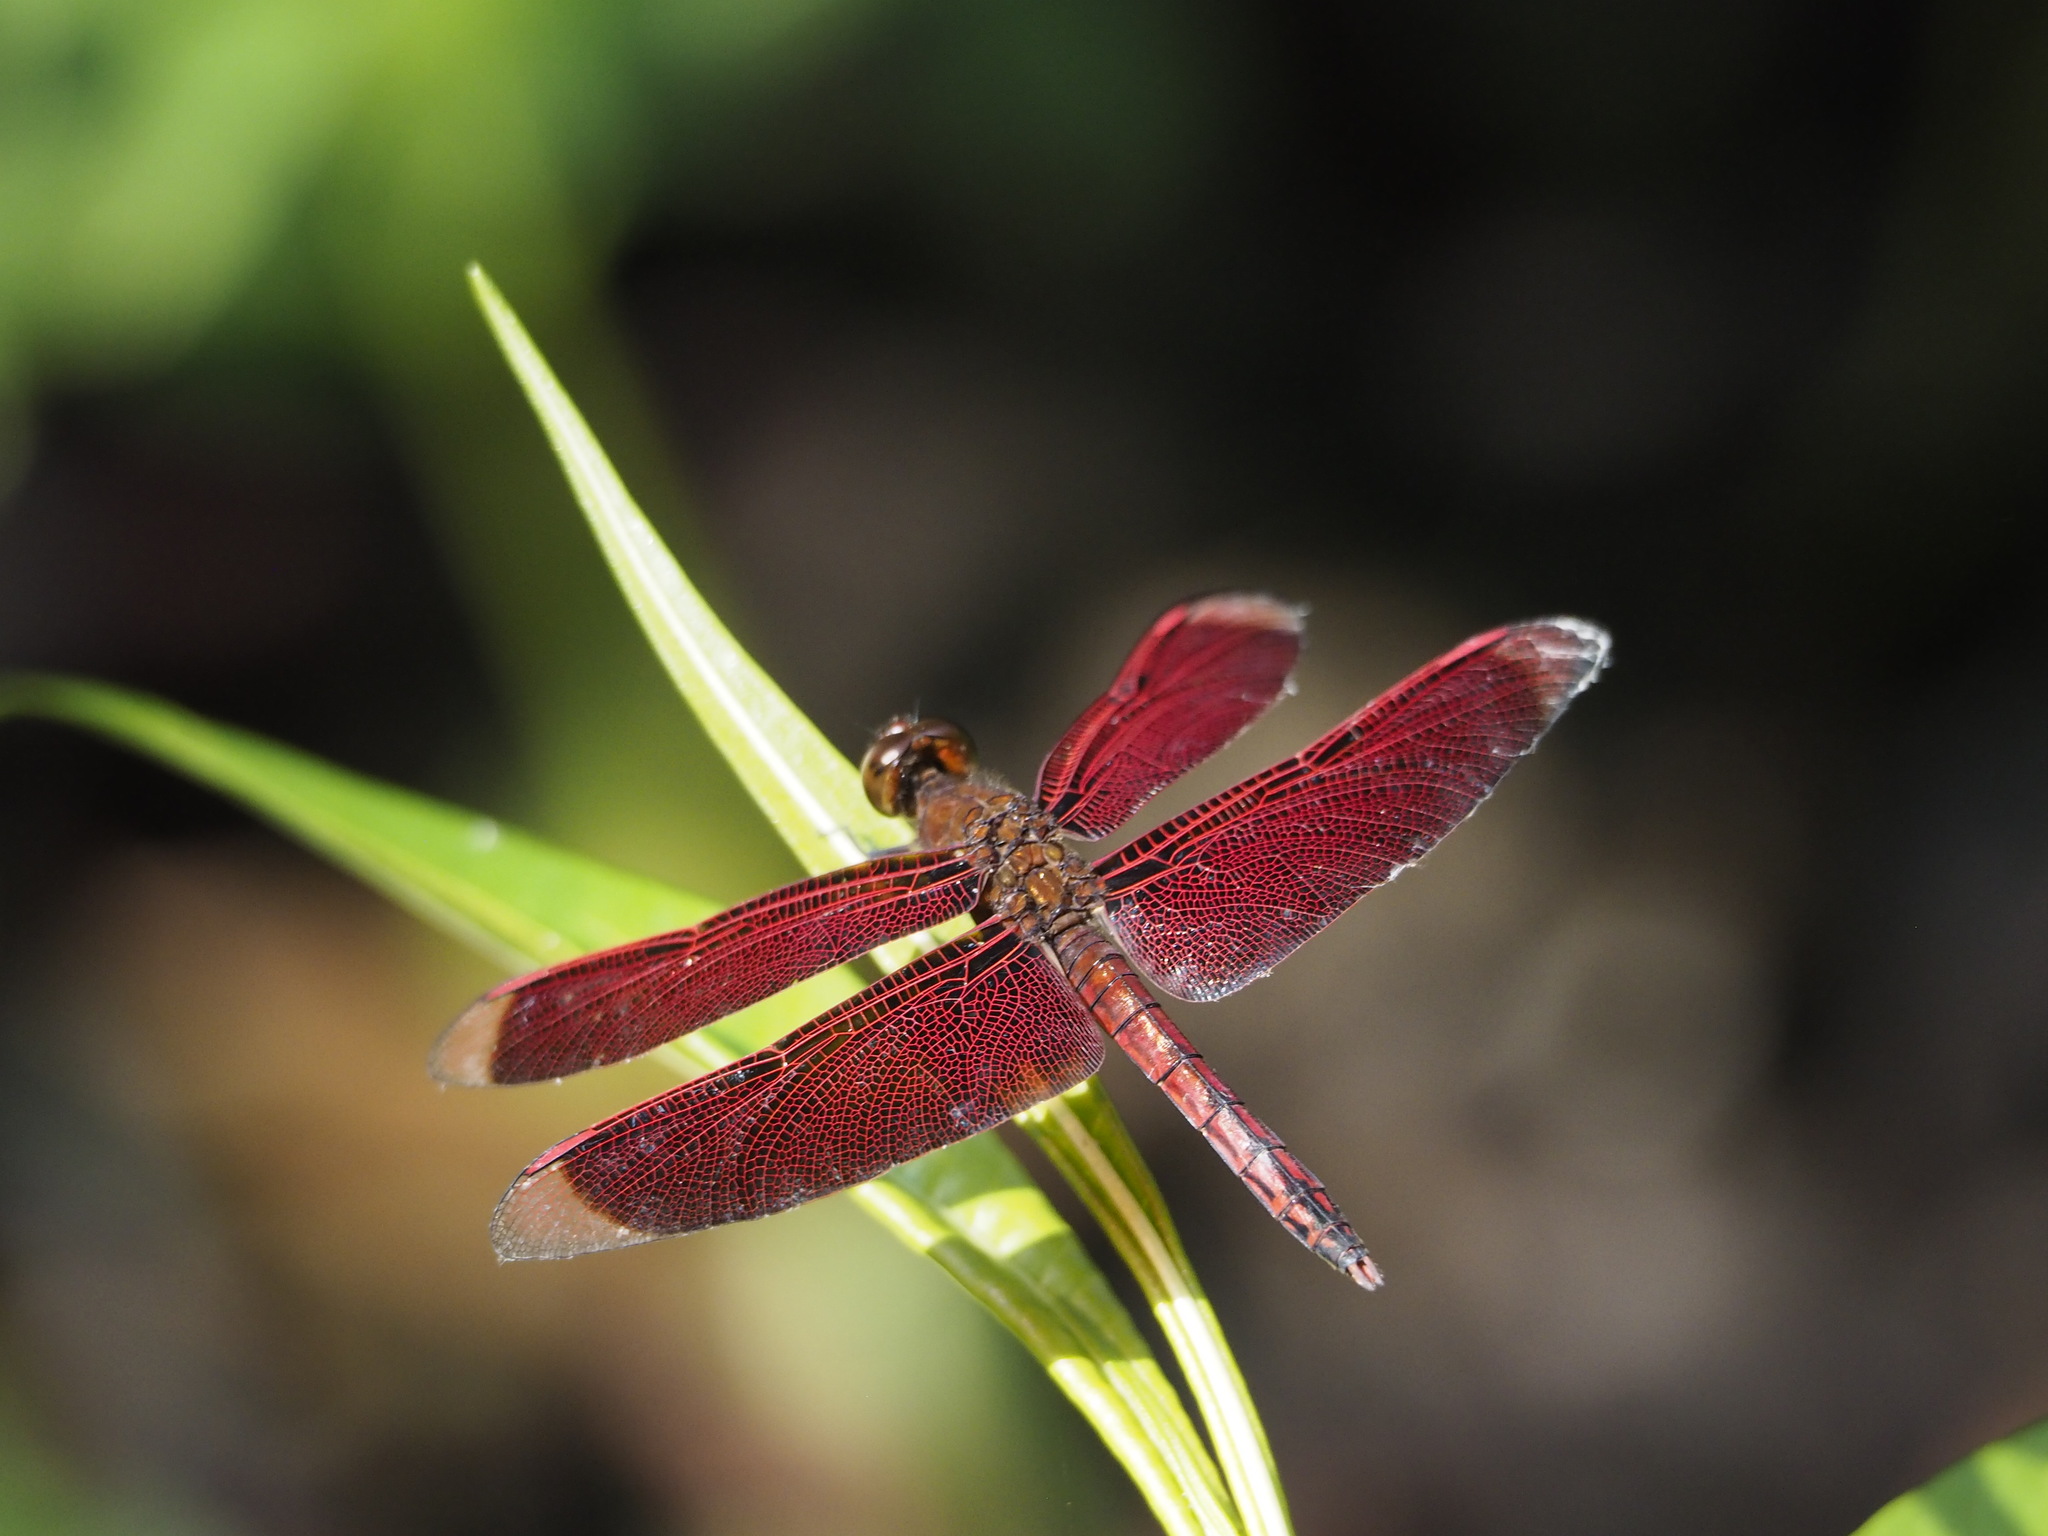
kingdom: Animalia
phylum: Arthropoda
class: Insecta
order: Odonata
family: Libellulidae
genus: Neurothemis
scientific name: Neurothemis taiwanensis
